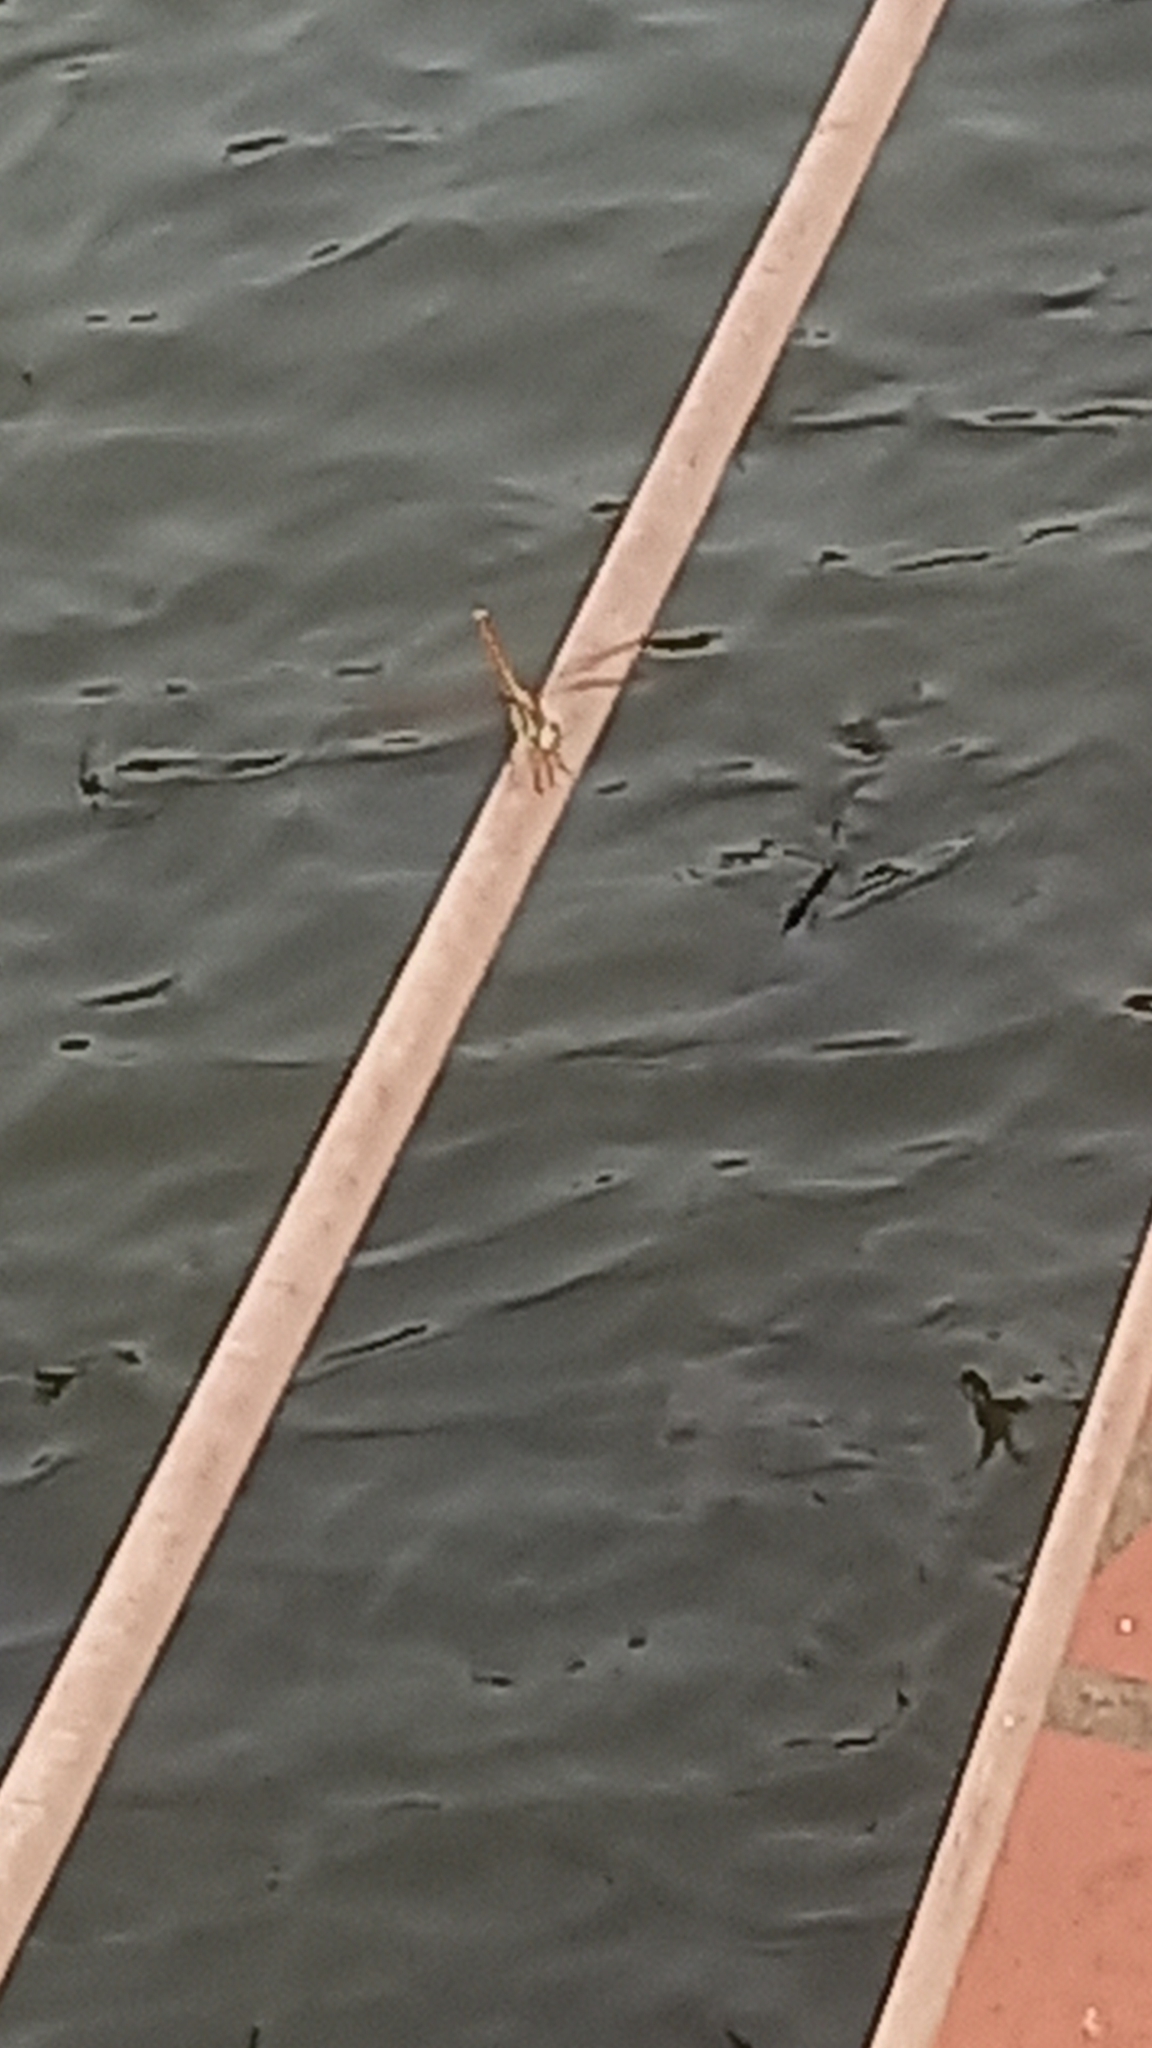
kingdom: Animalia
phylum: Arthropoda
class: Insecta
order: Odonata
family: Libellulidae
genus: Brachythemis
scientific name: Brachythemis contaminata
